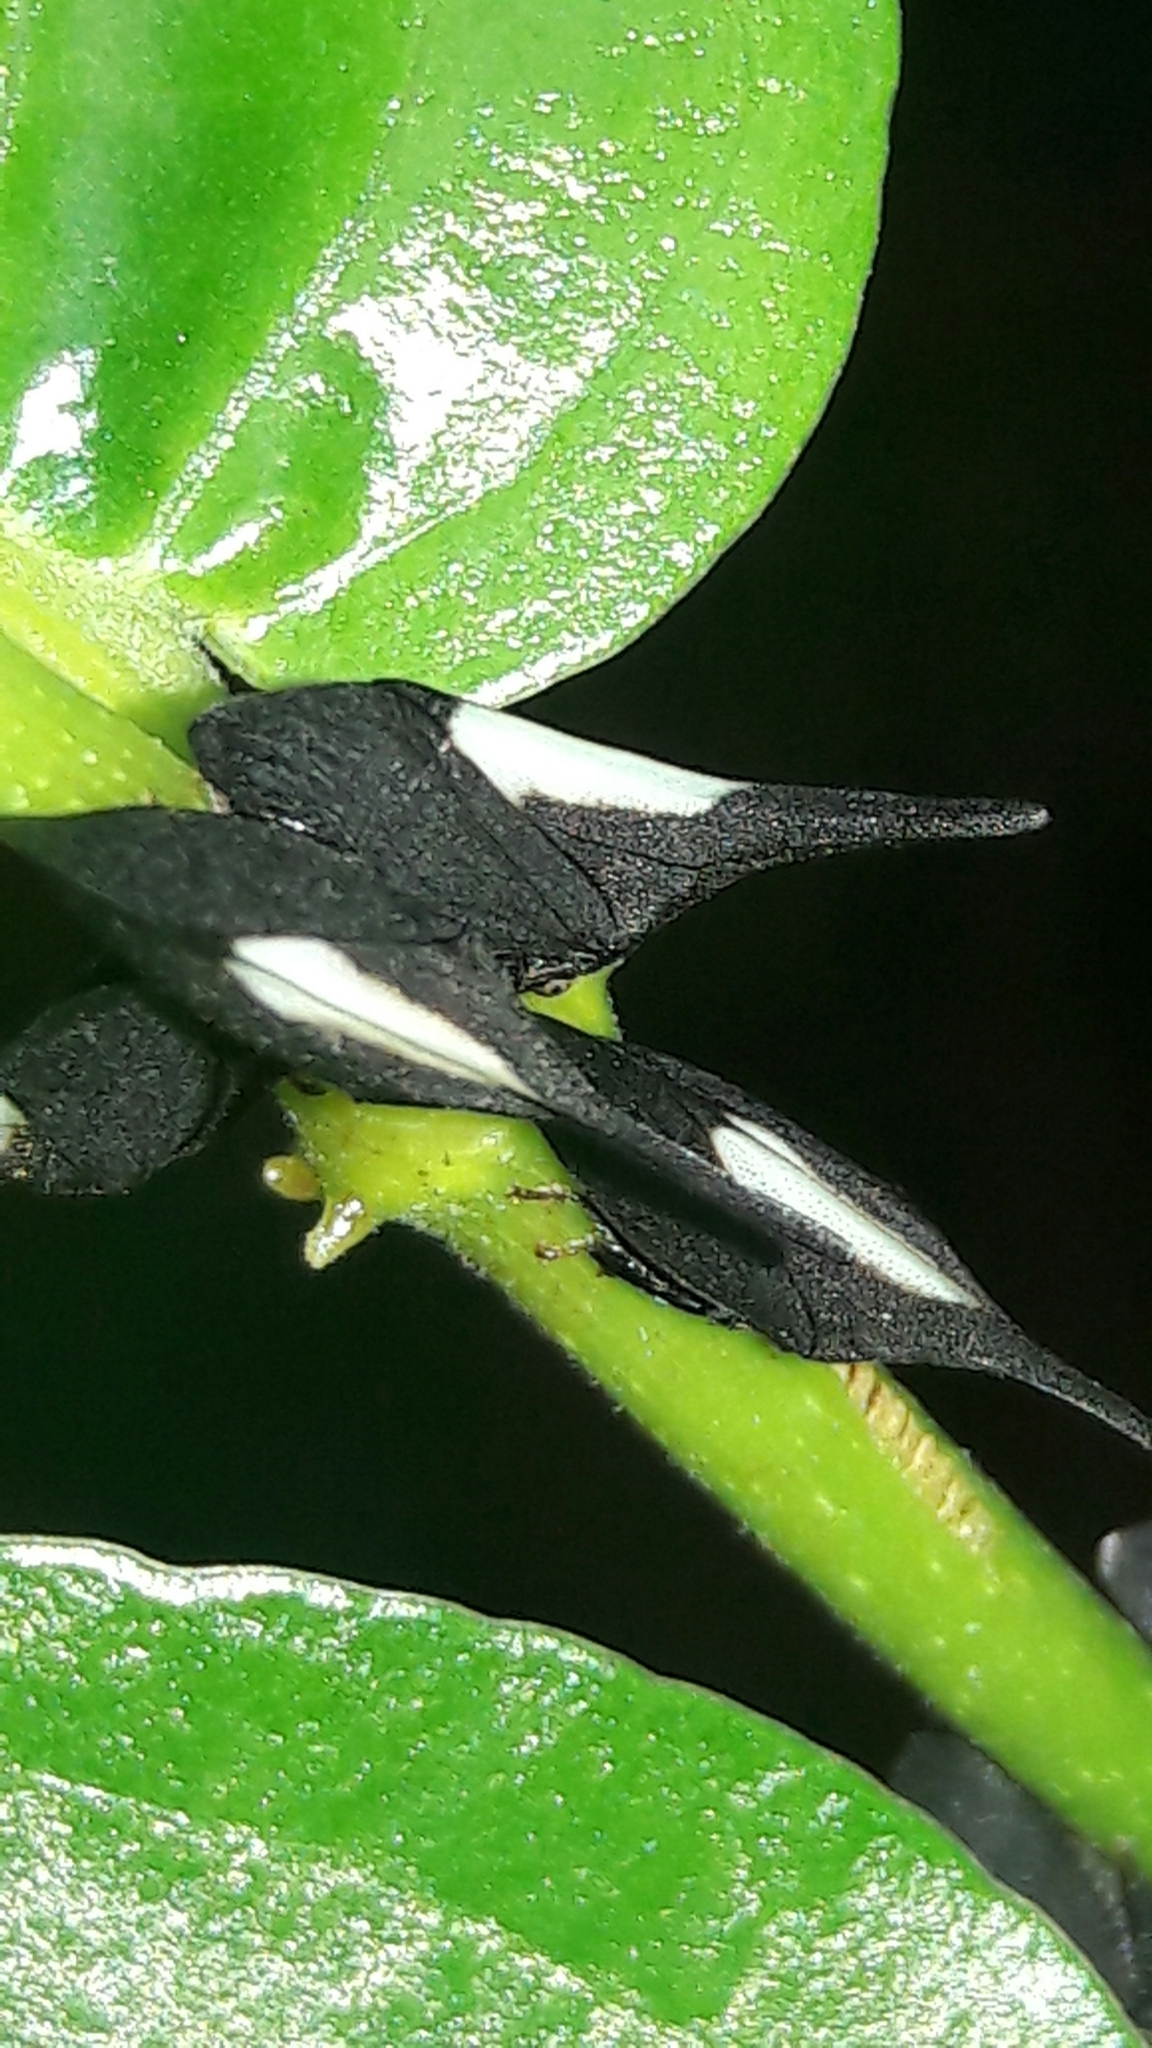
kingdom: Animalia
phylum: Arthropoda
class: Insecta
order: Hemiptera
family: Membracidae
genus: Enchenopa
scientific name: Enchenopa albidorsa
